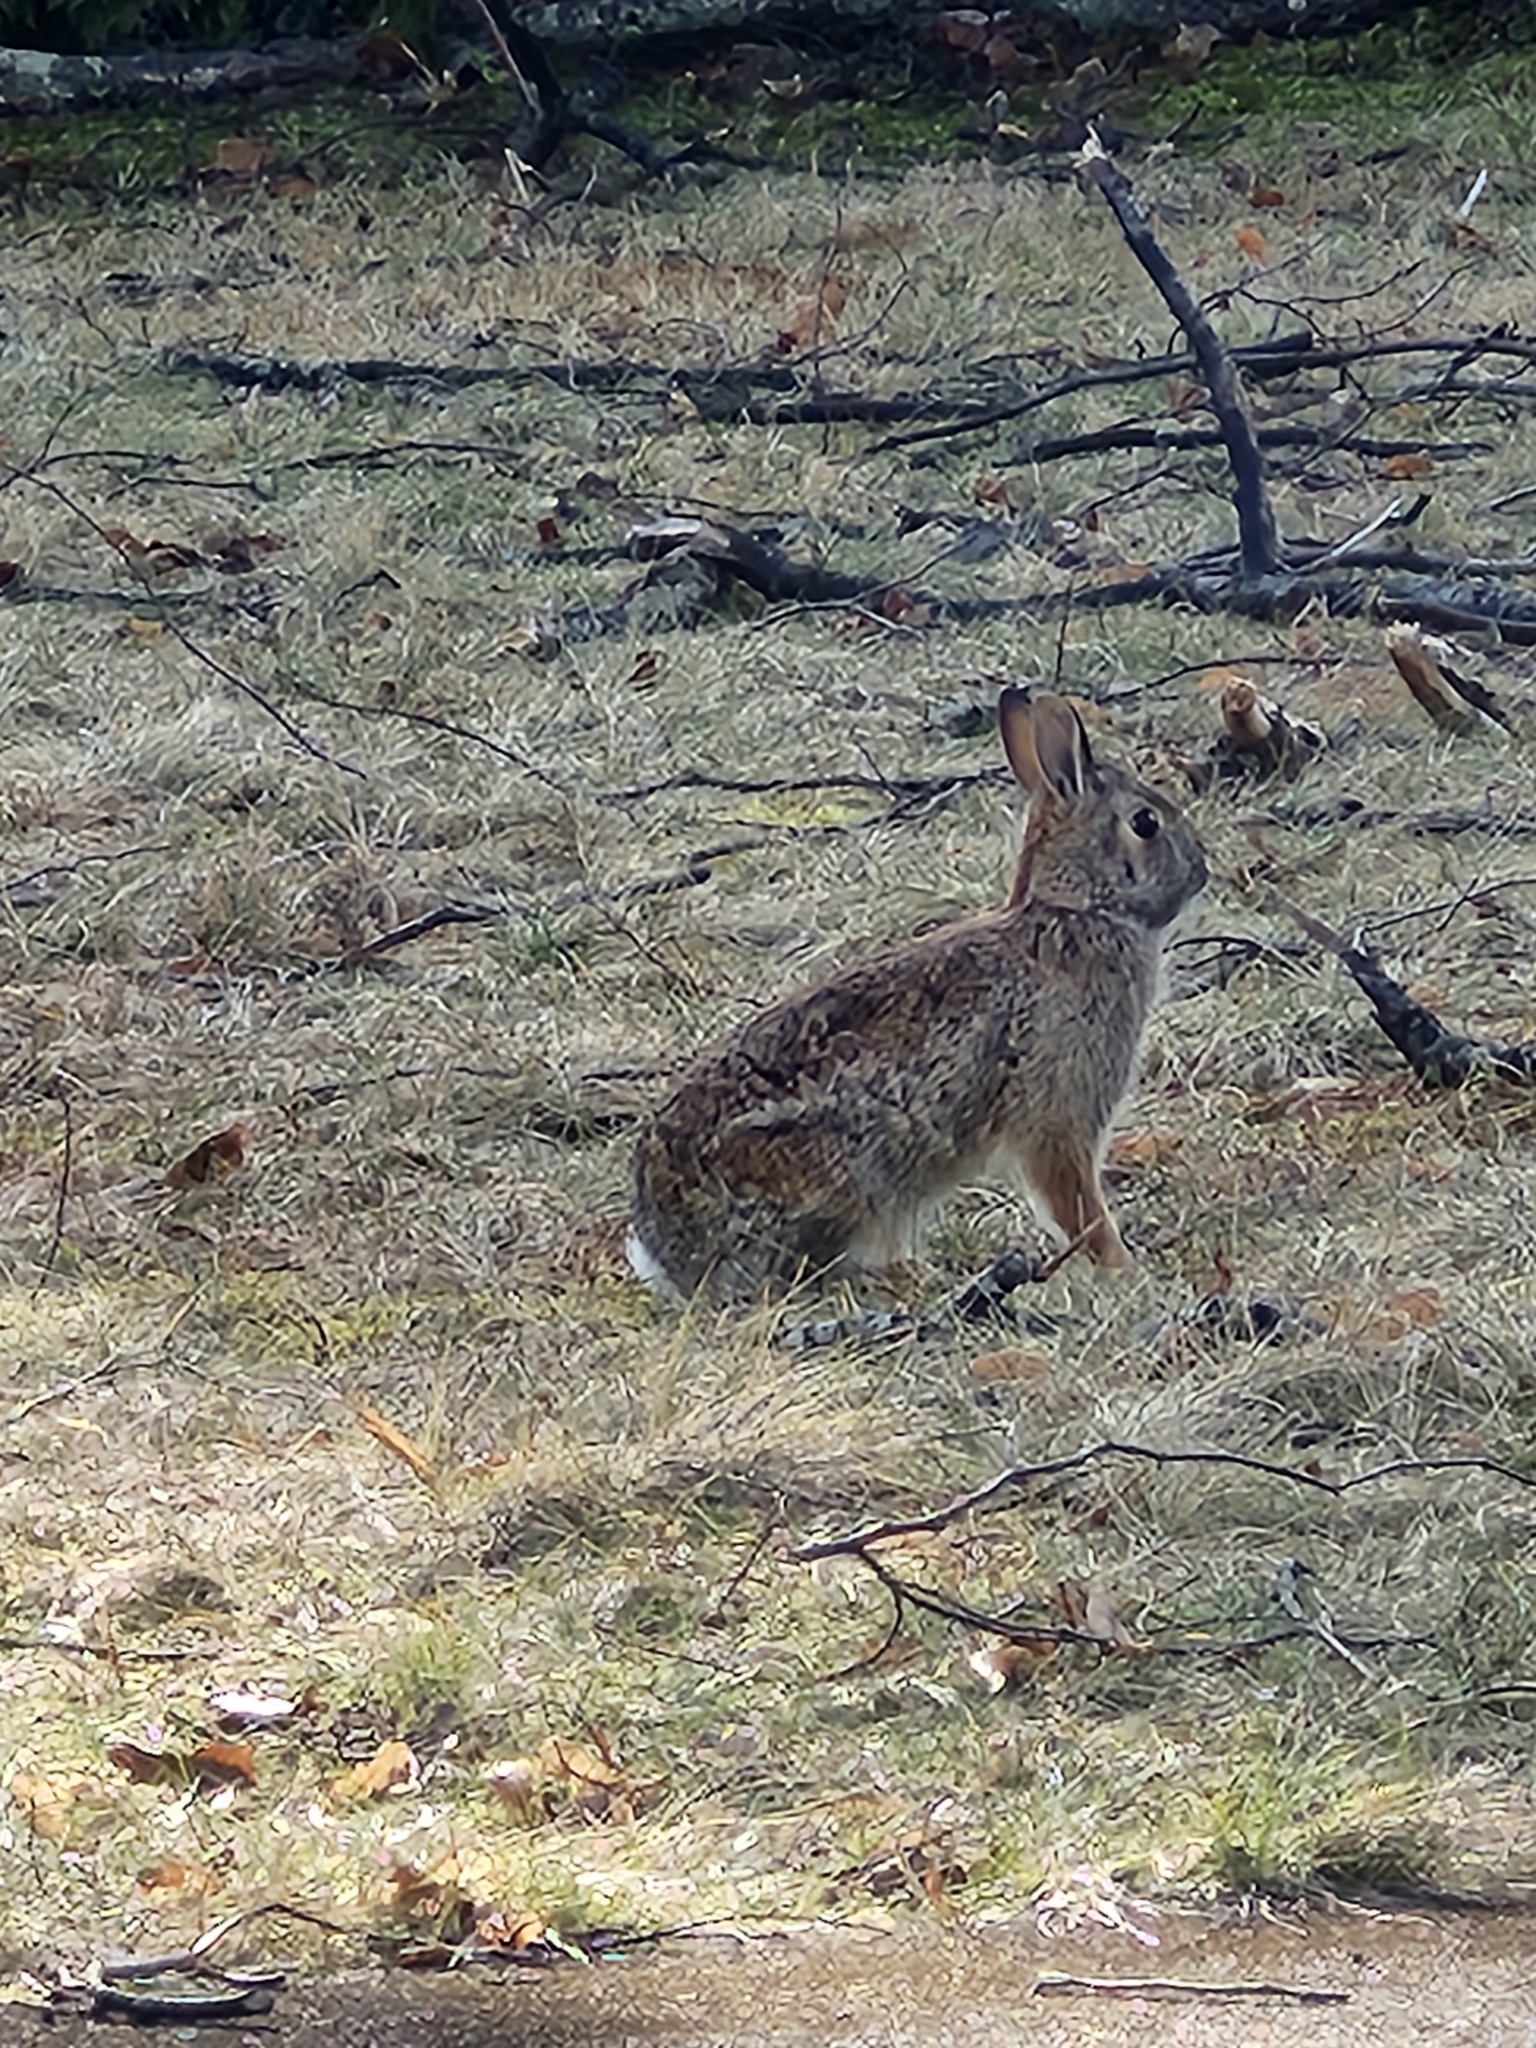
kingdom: Animalia
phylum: Chordata
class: Mammalia
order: Lagomorpha
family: Leporidae
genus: Sylvilagus
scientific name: Sylvilagus floridanus
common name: Eastern cottontail
